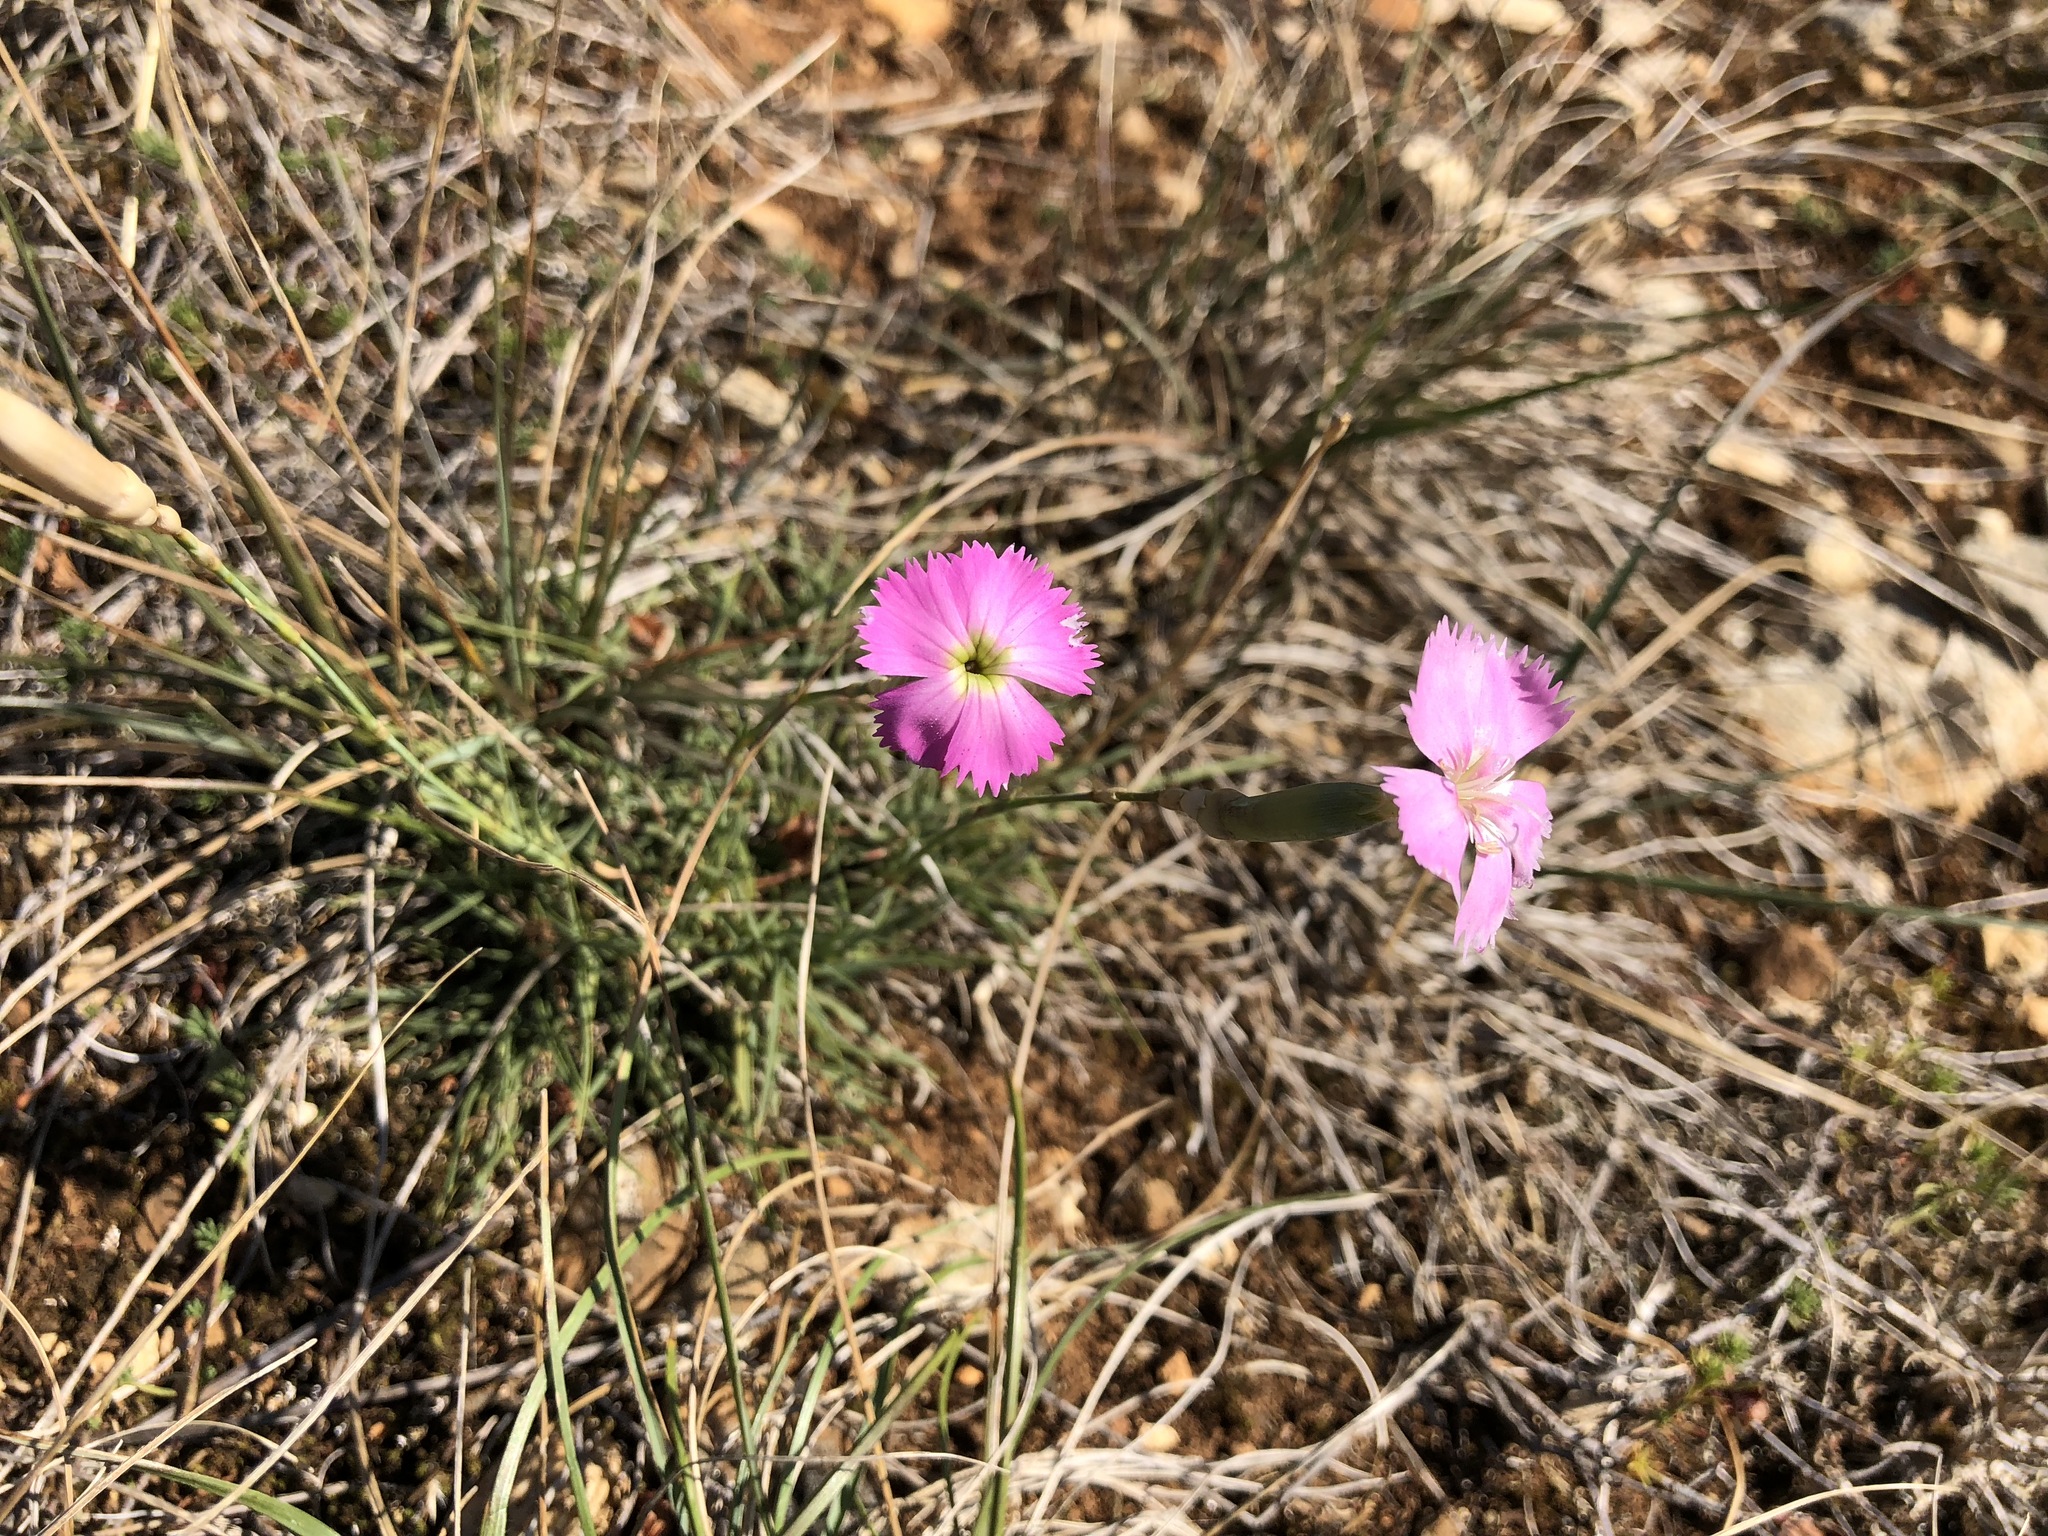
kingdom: Plantae
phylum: Tracheophyta
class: Magnoliopsida
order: Caryophyllales
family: Caryophyllaceae
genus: Dianthus
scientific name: Dianthus sylvestris
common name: Wood pink
